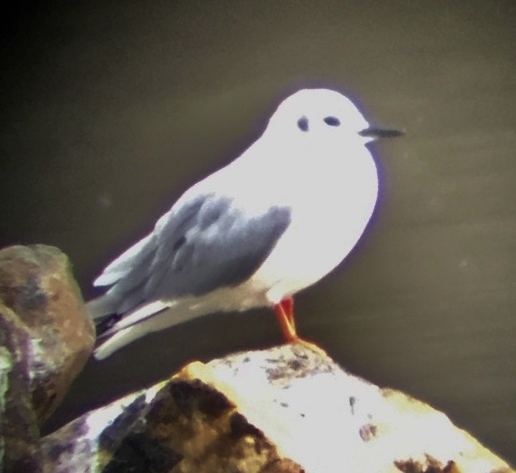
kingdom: Animalia
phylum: Chordata
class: Aves
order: Charadriiformes
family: Laridae
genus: Chroicocephalus
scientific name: Chroicocephalus philadelphia
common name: Bonaparte's gull
